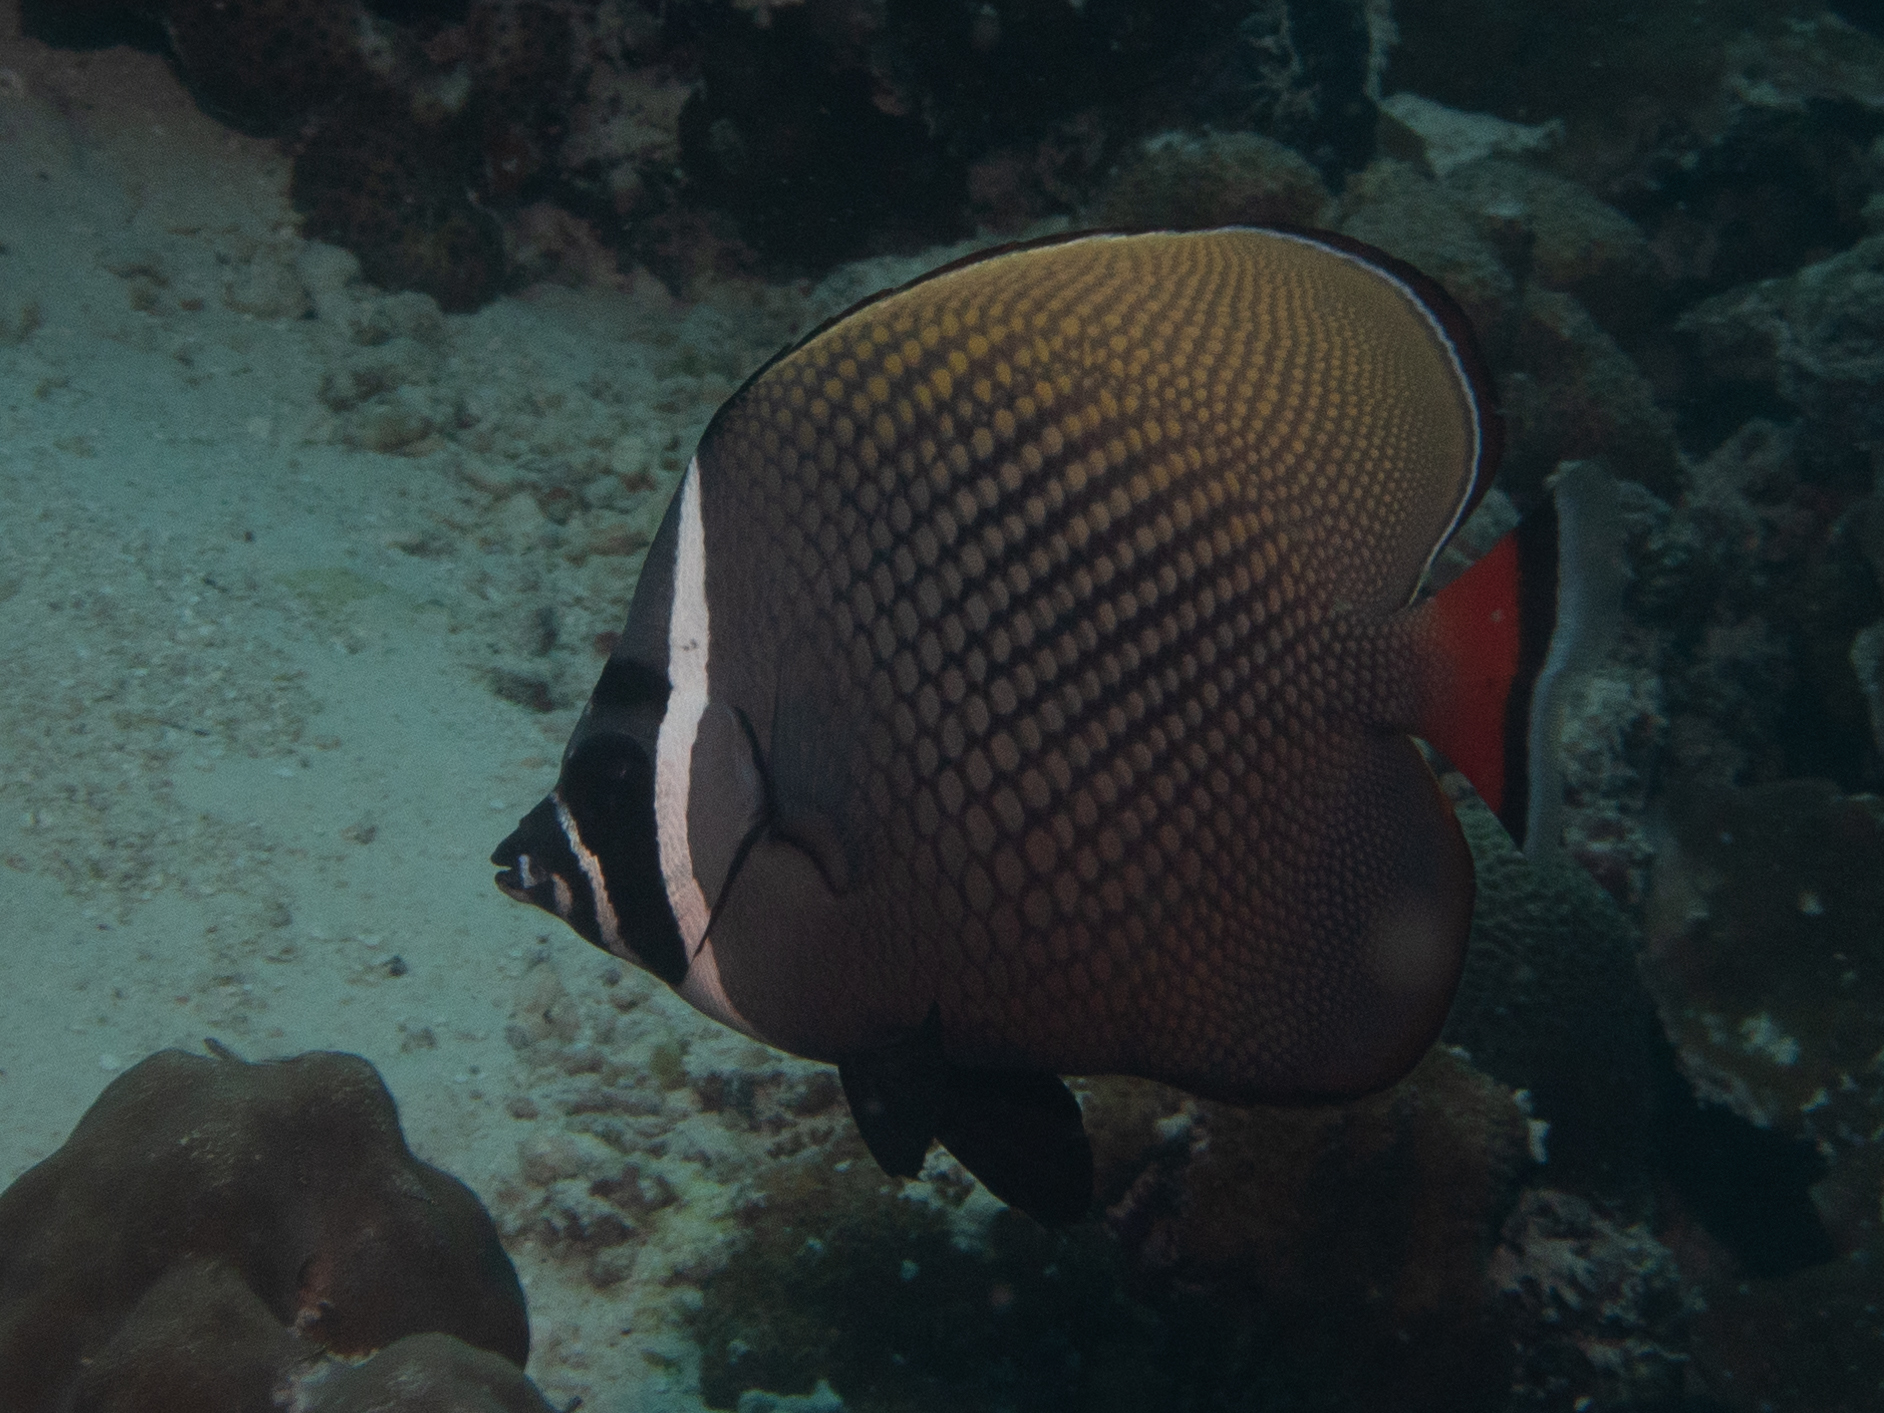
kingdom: Animalia
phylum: Chordata
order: Perciformes
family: Chaetodontidae
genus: Chaetodon
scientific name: Chaetodon collare
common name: Redtail butterflyfish
